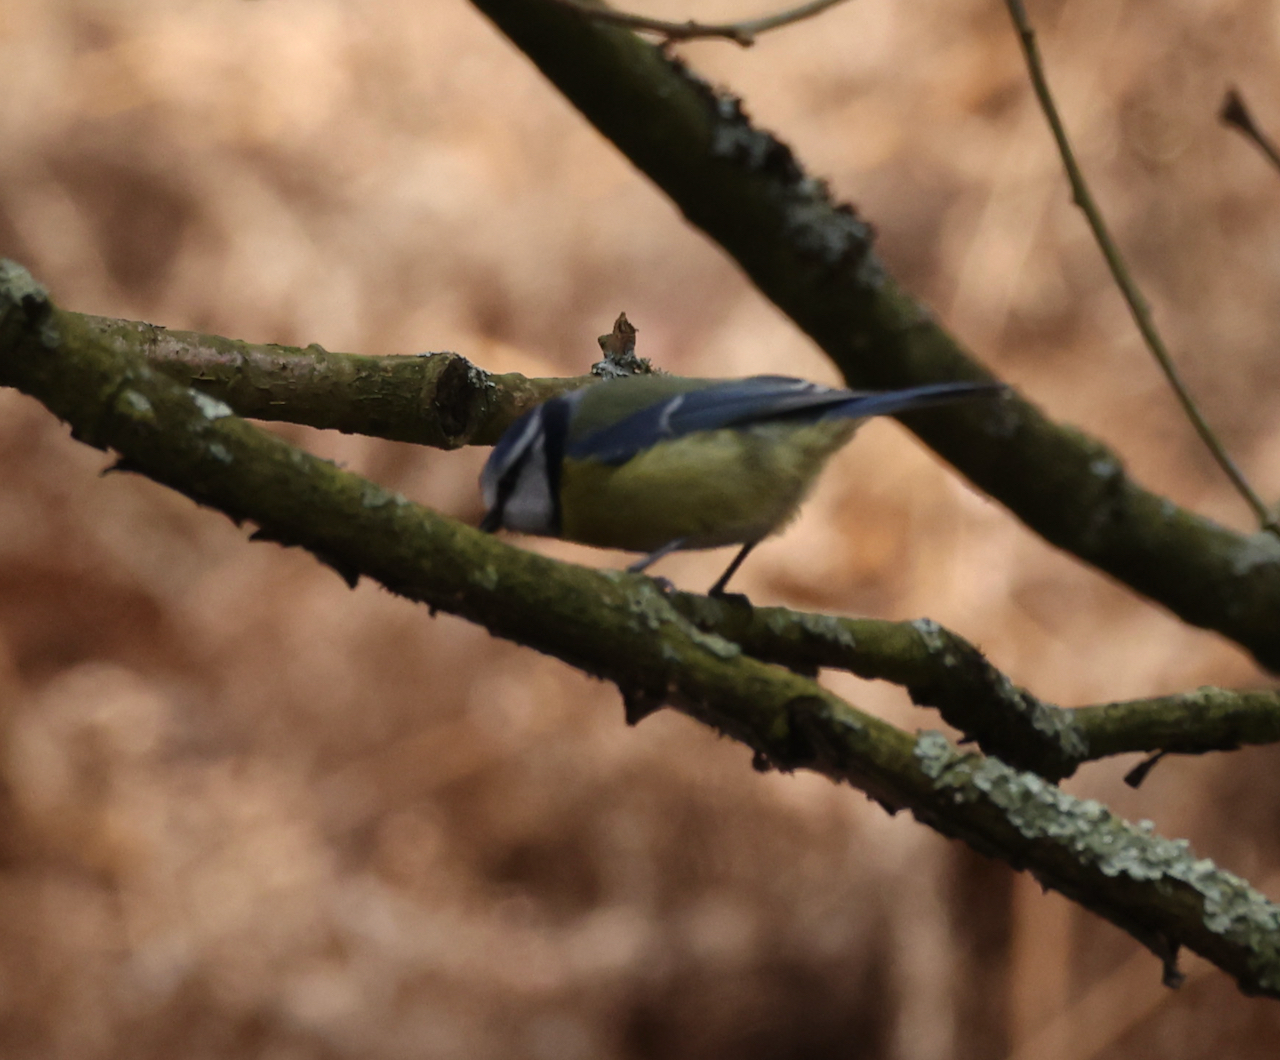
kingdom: Animalia
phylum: Chordata
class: Aves
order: Passeriformes
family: Paridae
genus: Cyanistes
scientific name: Cyanistes caeruleus
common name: Eurasian blue tit
